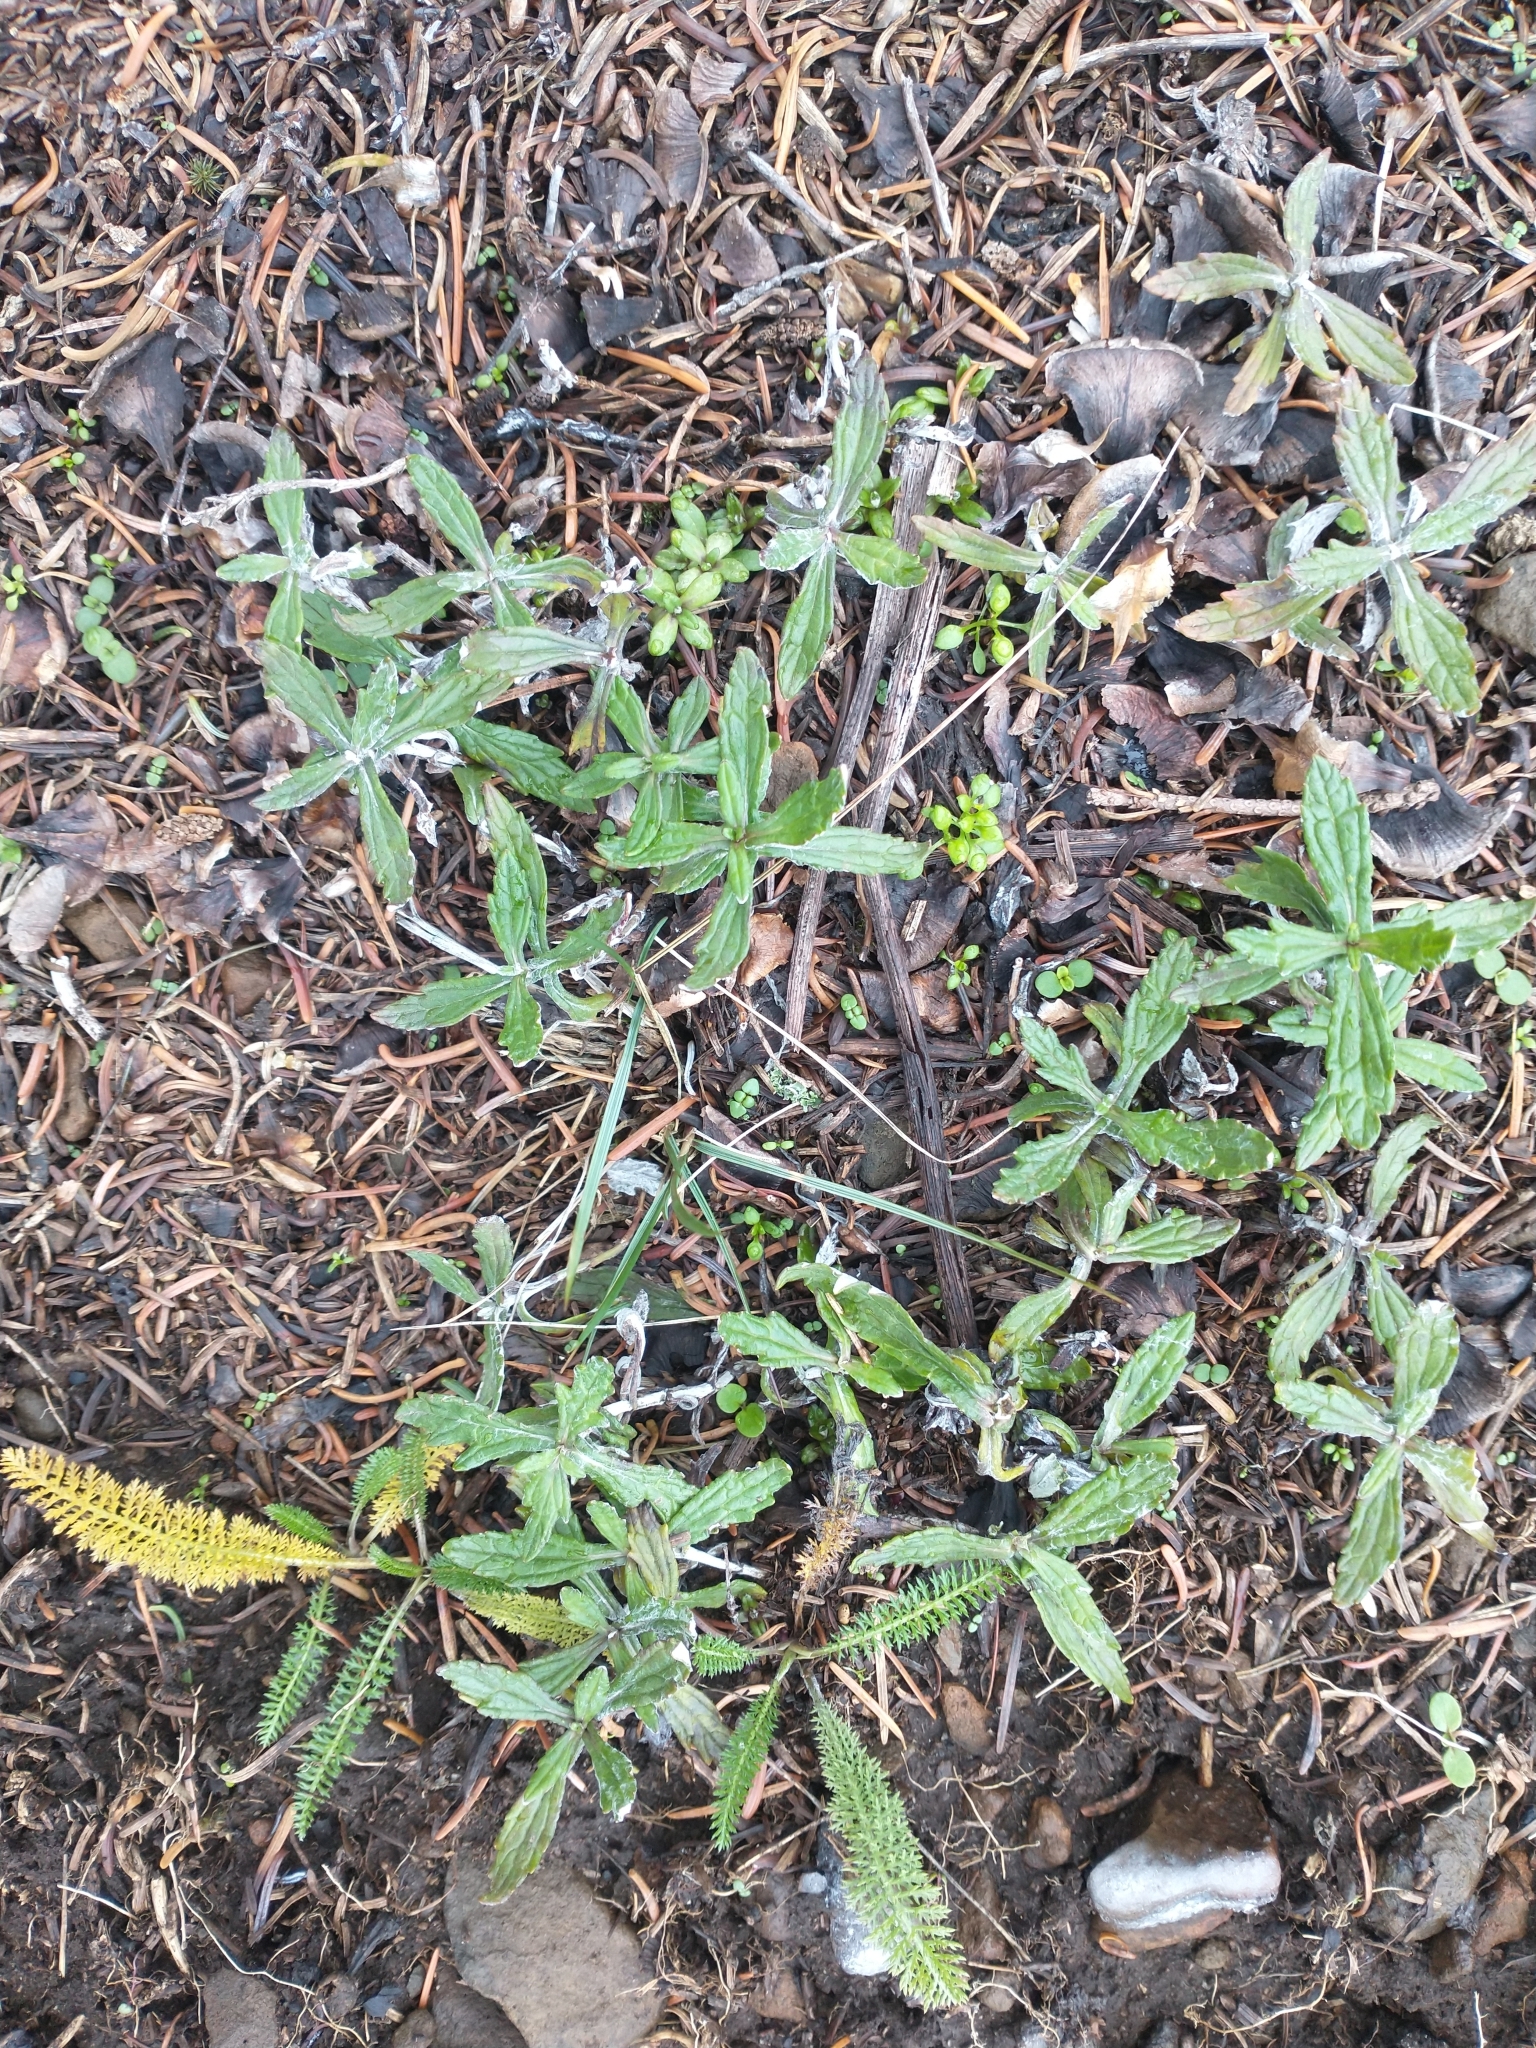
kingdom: Plantae
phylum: Tracheophyta
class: Magnoliopsida
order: Asterales
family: Asteraceae
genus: Eriophyllum
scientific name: Eriophyllum lanatum
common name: Common woolly-sunflower
